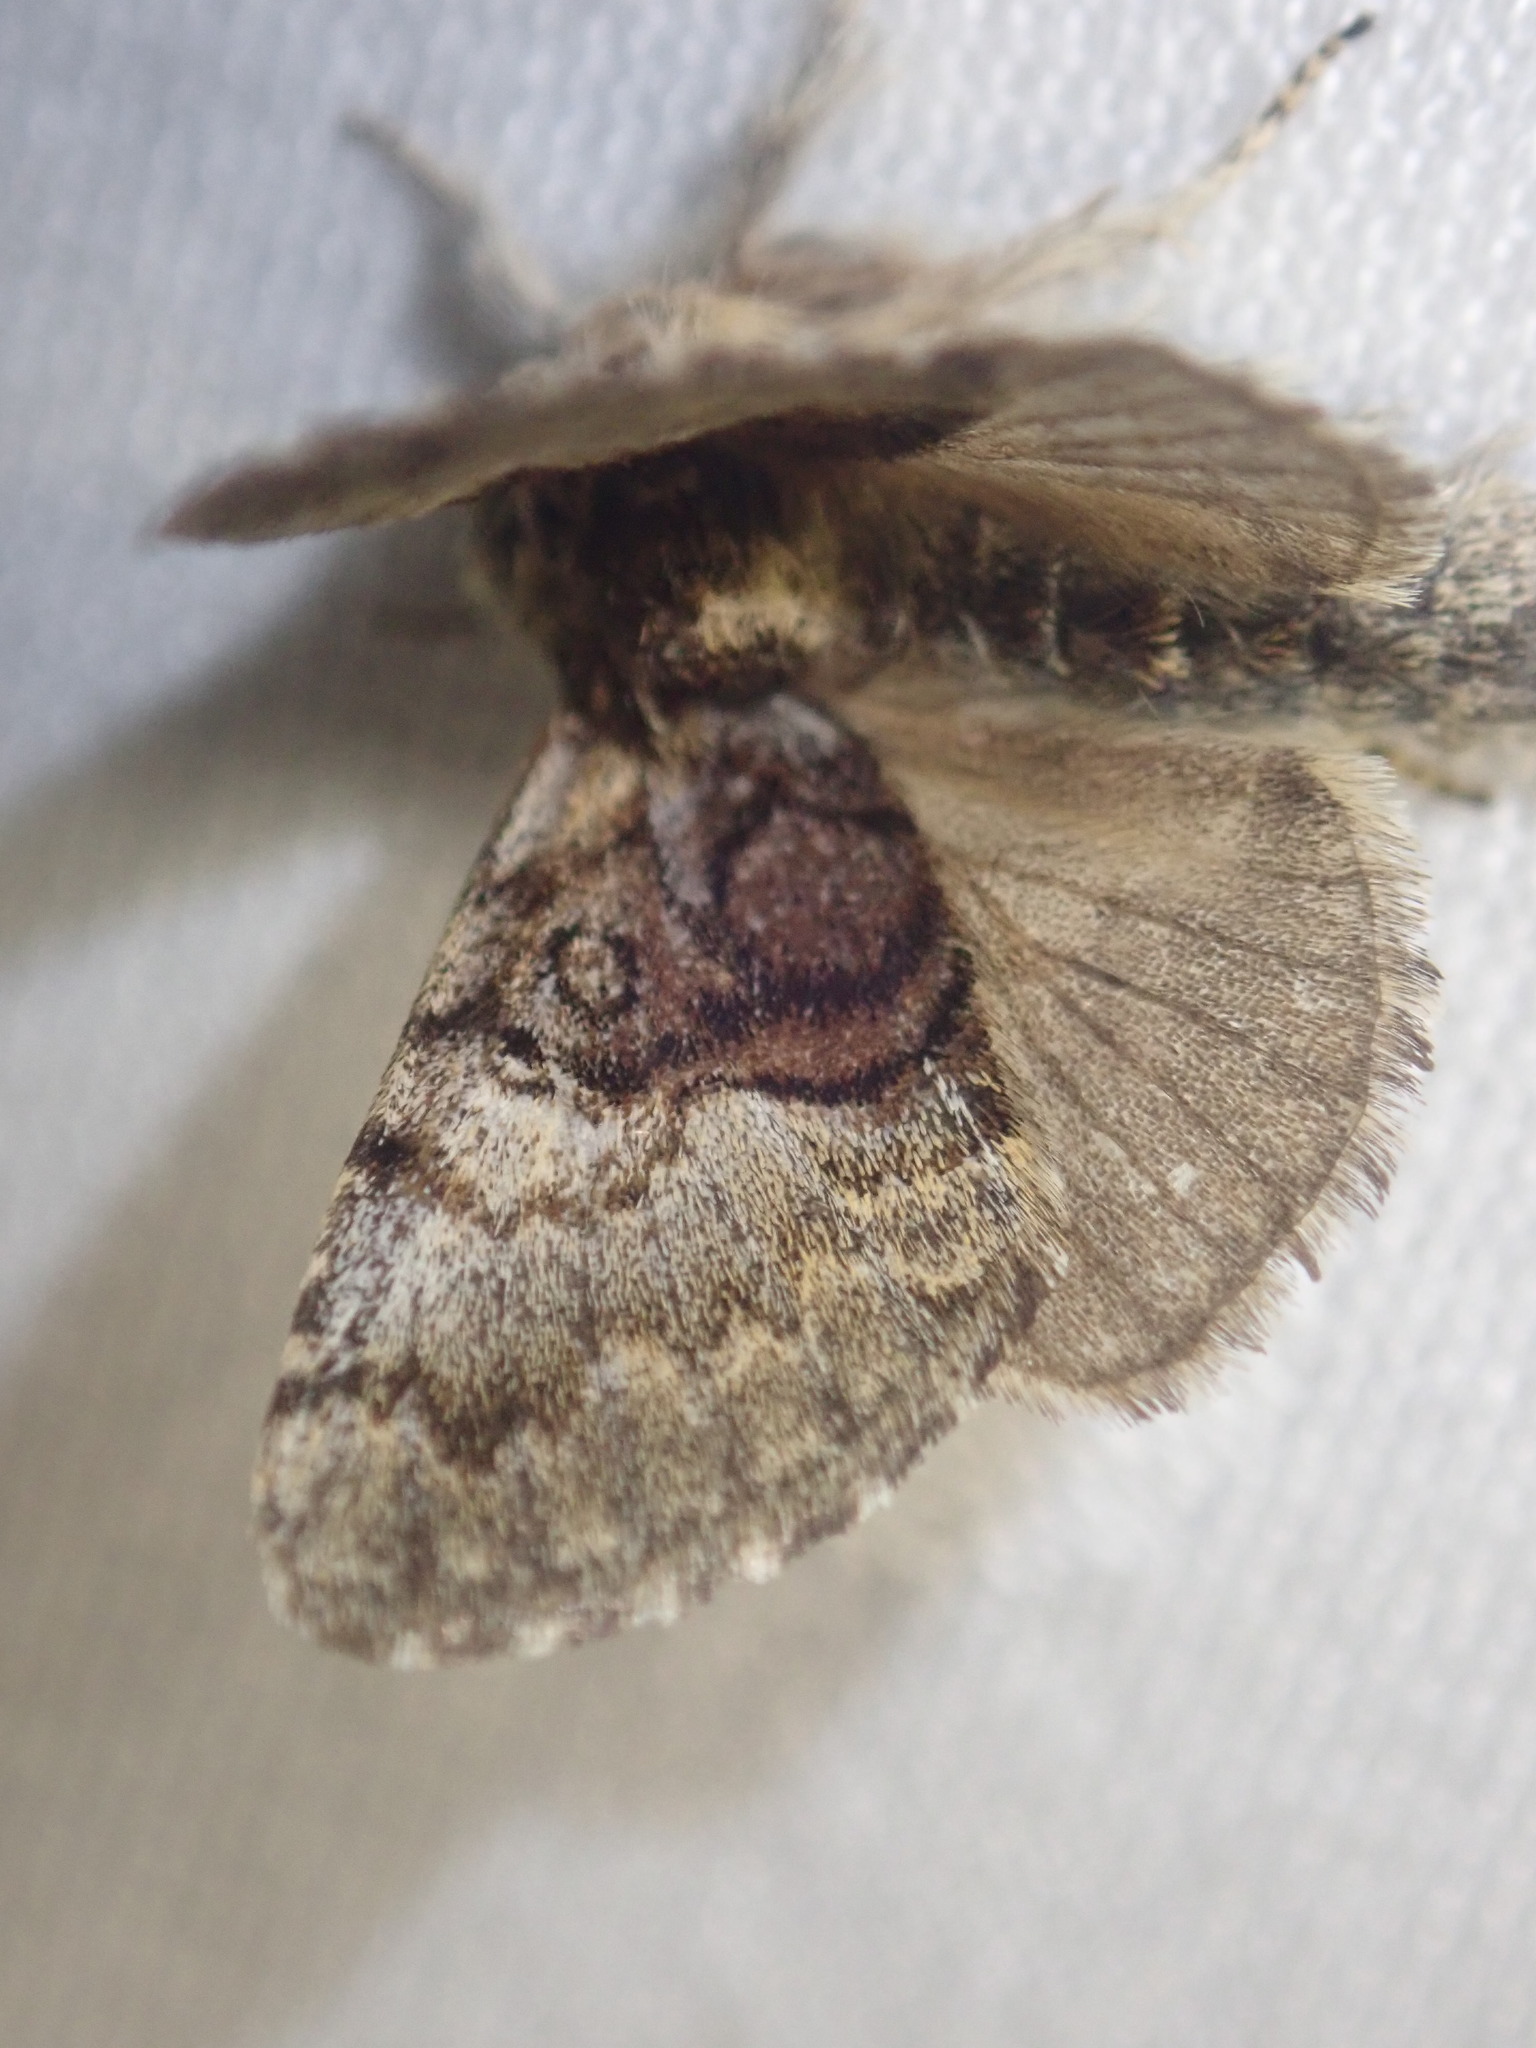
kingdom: Animalia
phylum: Arthropoda
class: Insecta
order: Lepidoptera
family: Noctuidae
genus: Colocasia
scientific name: Colocasia coryli
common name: Nut-tree tussock
